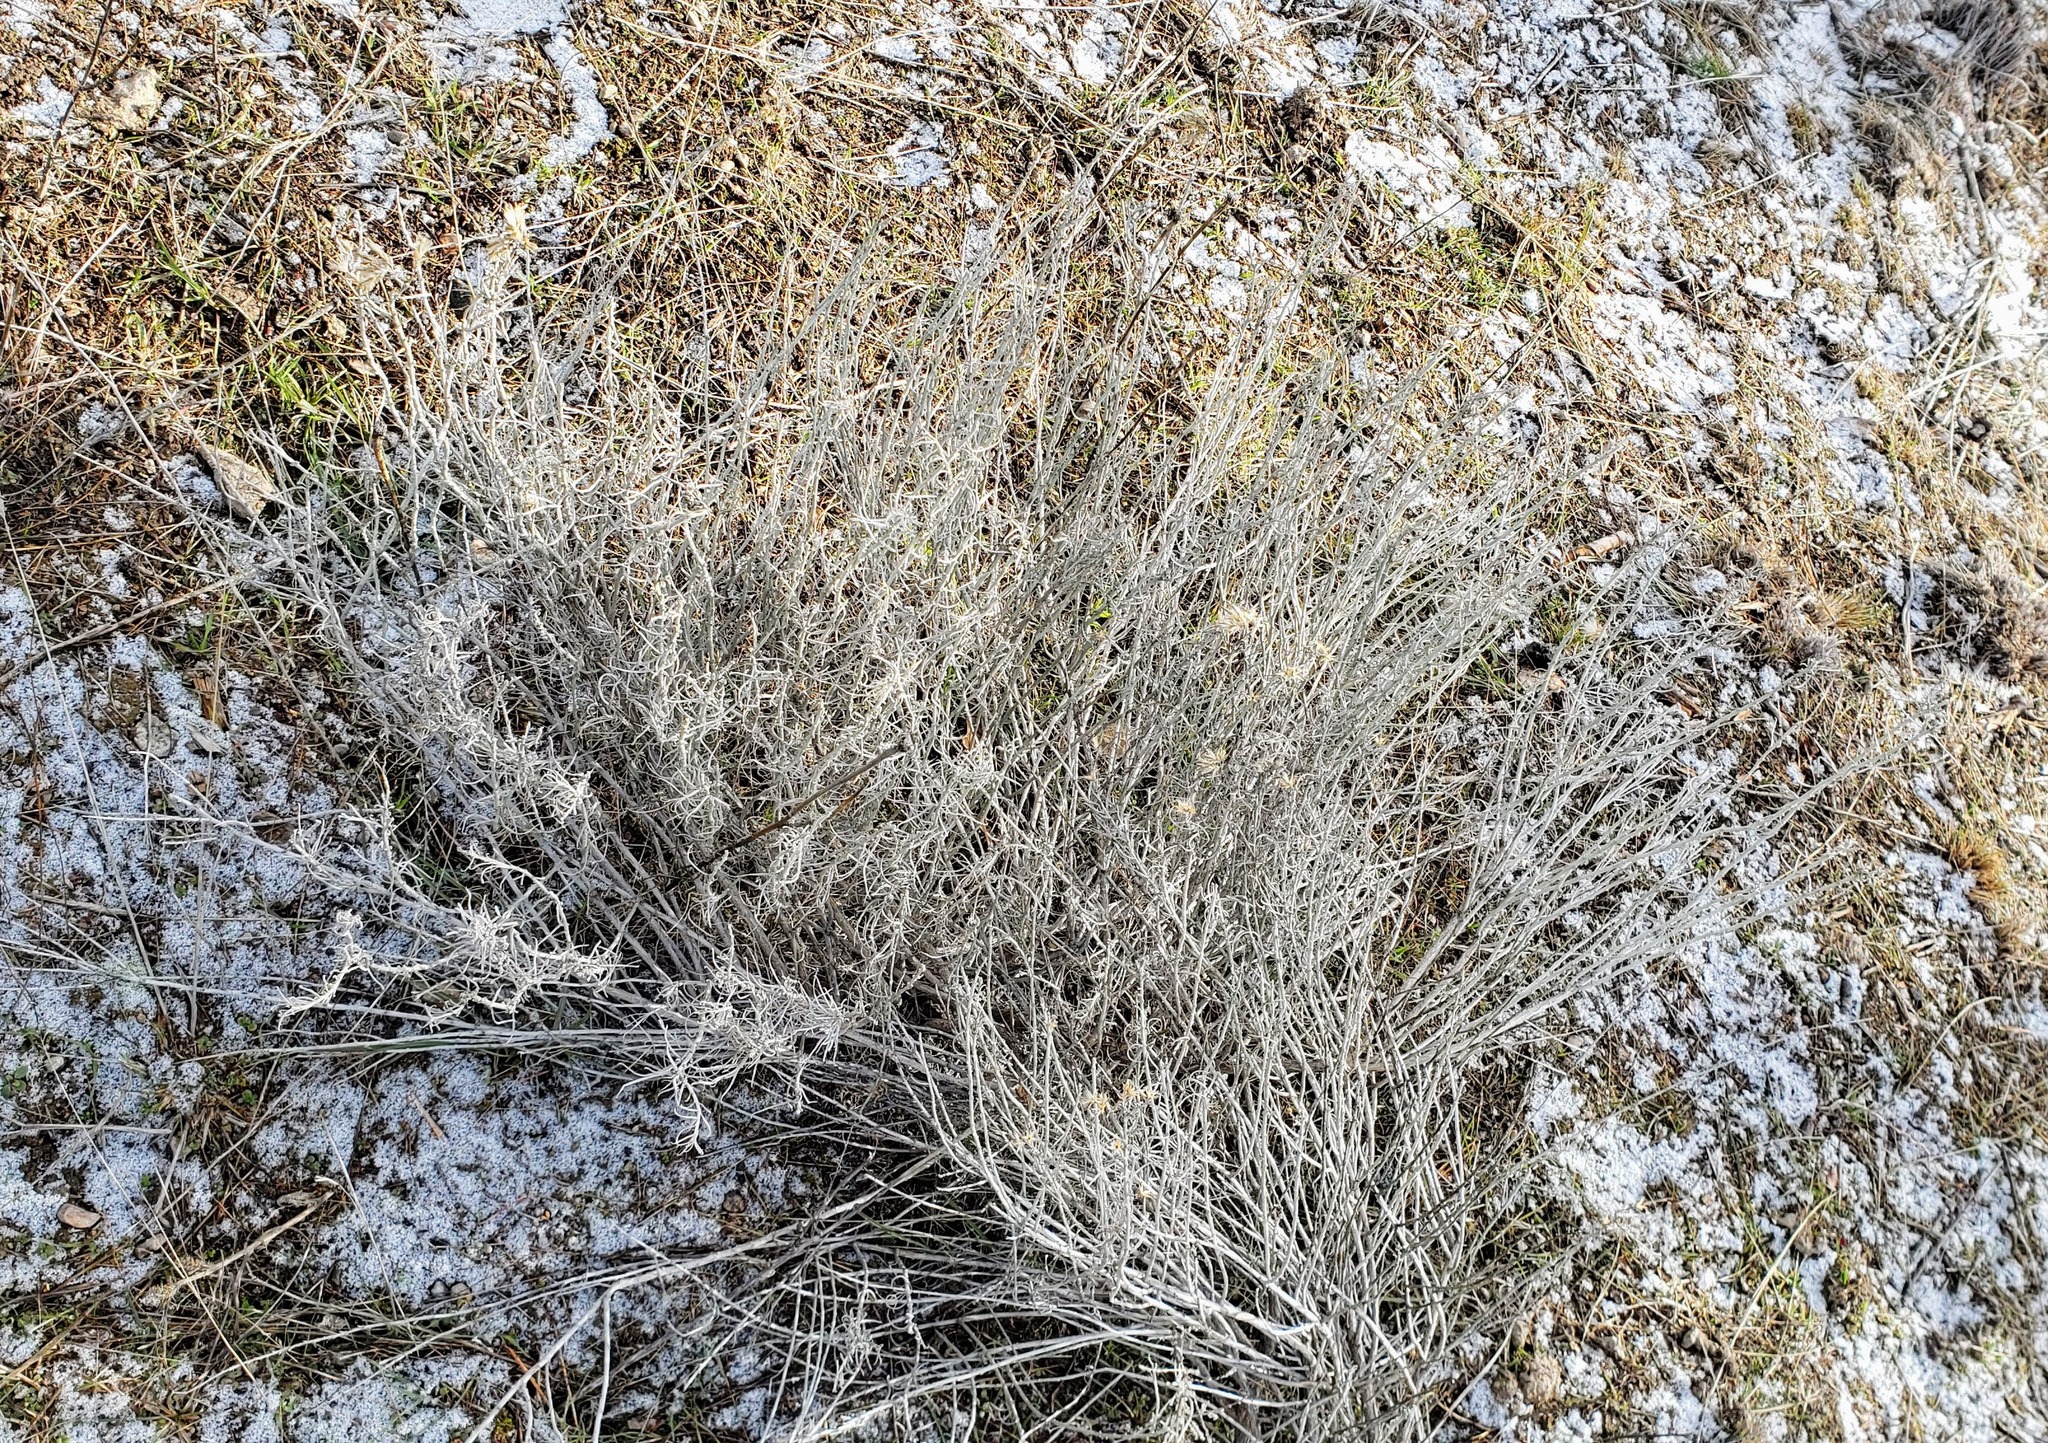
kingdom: Plantae
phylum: Tracheophyta
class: Magnoliopsida
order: Asterales
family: Asteraceae
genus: Ericameria
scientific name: Ericameria nauseosa
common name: Rubber rabbitbrush
